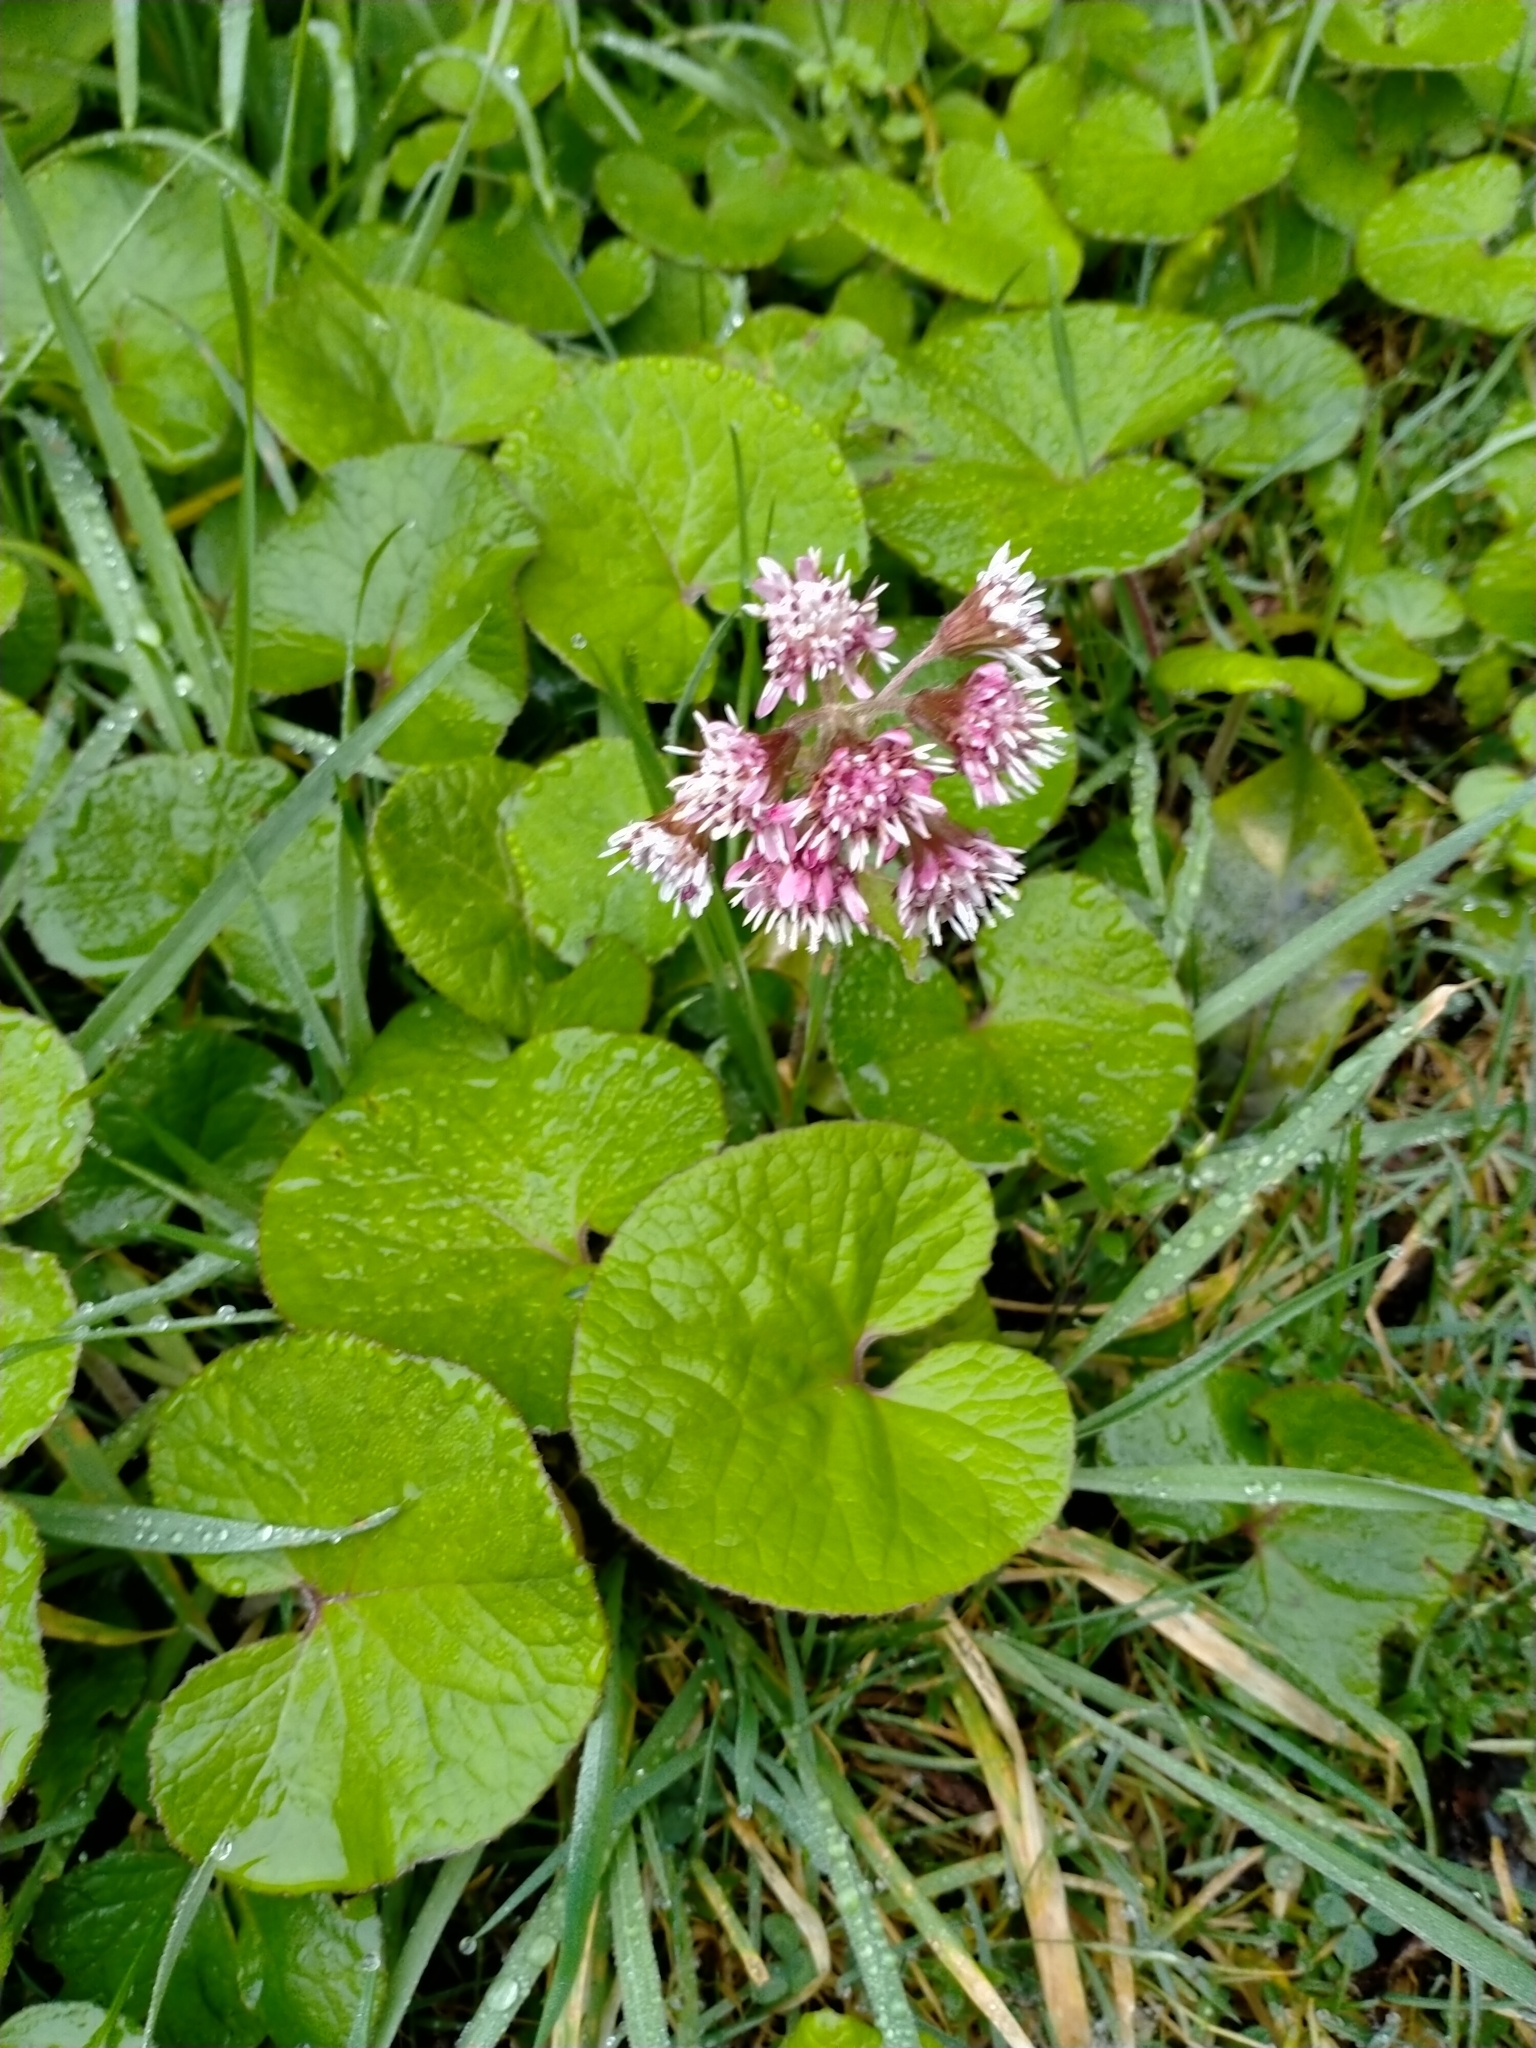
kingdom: Plantae
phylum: Tracheophyta
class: Magnoliopsida
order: Asterales
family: Asteraceae
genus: Petasites
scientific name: Petasites pyrenaicus
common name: Winter heliotrope
